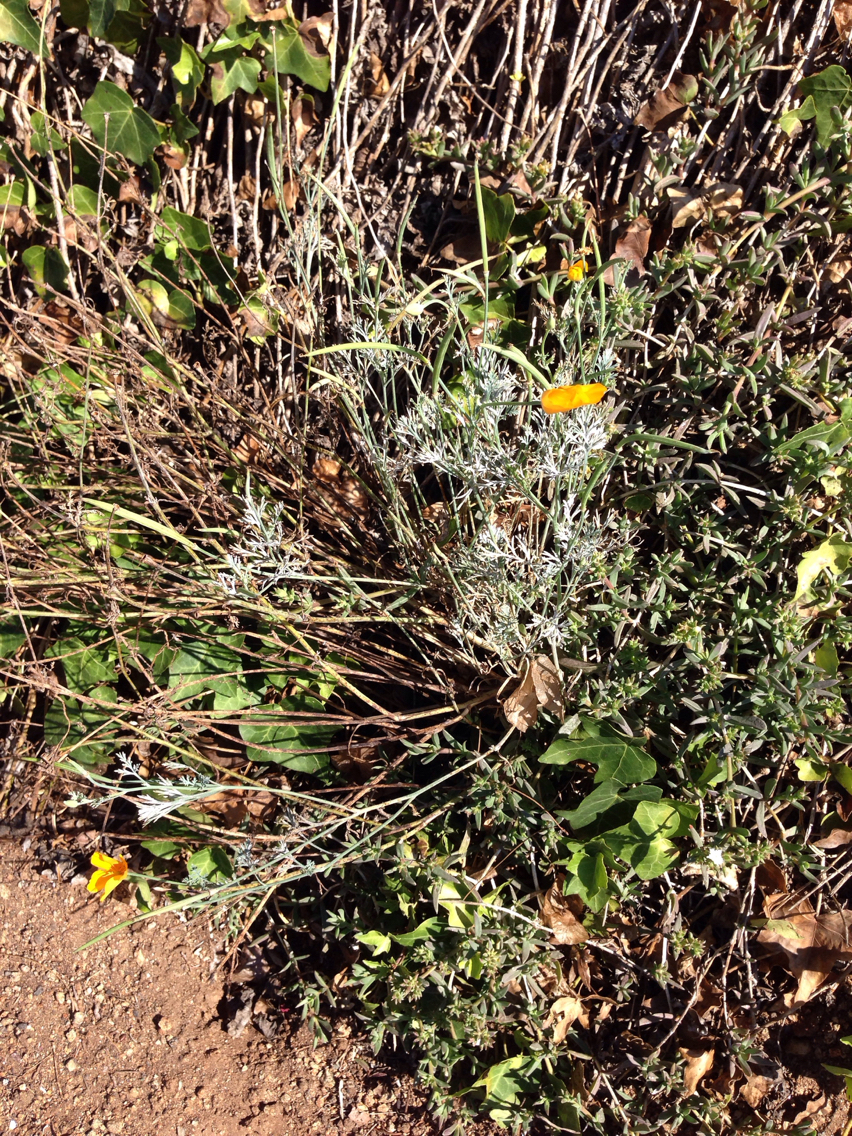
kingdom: Plantae
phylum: Tracheophyta
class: Magnoliopsida
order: Ranunculales
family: Papaveraceae
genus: Eschscholzia
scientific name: Eschscholzia californica
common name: California poppy
